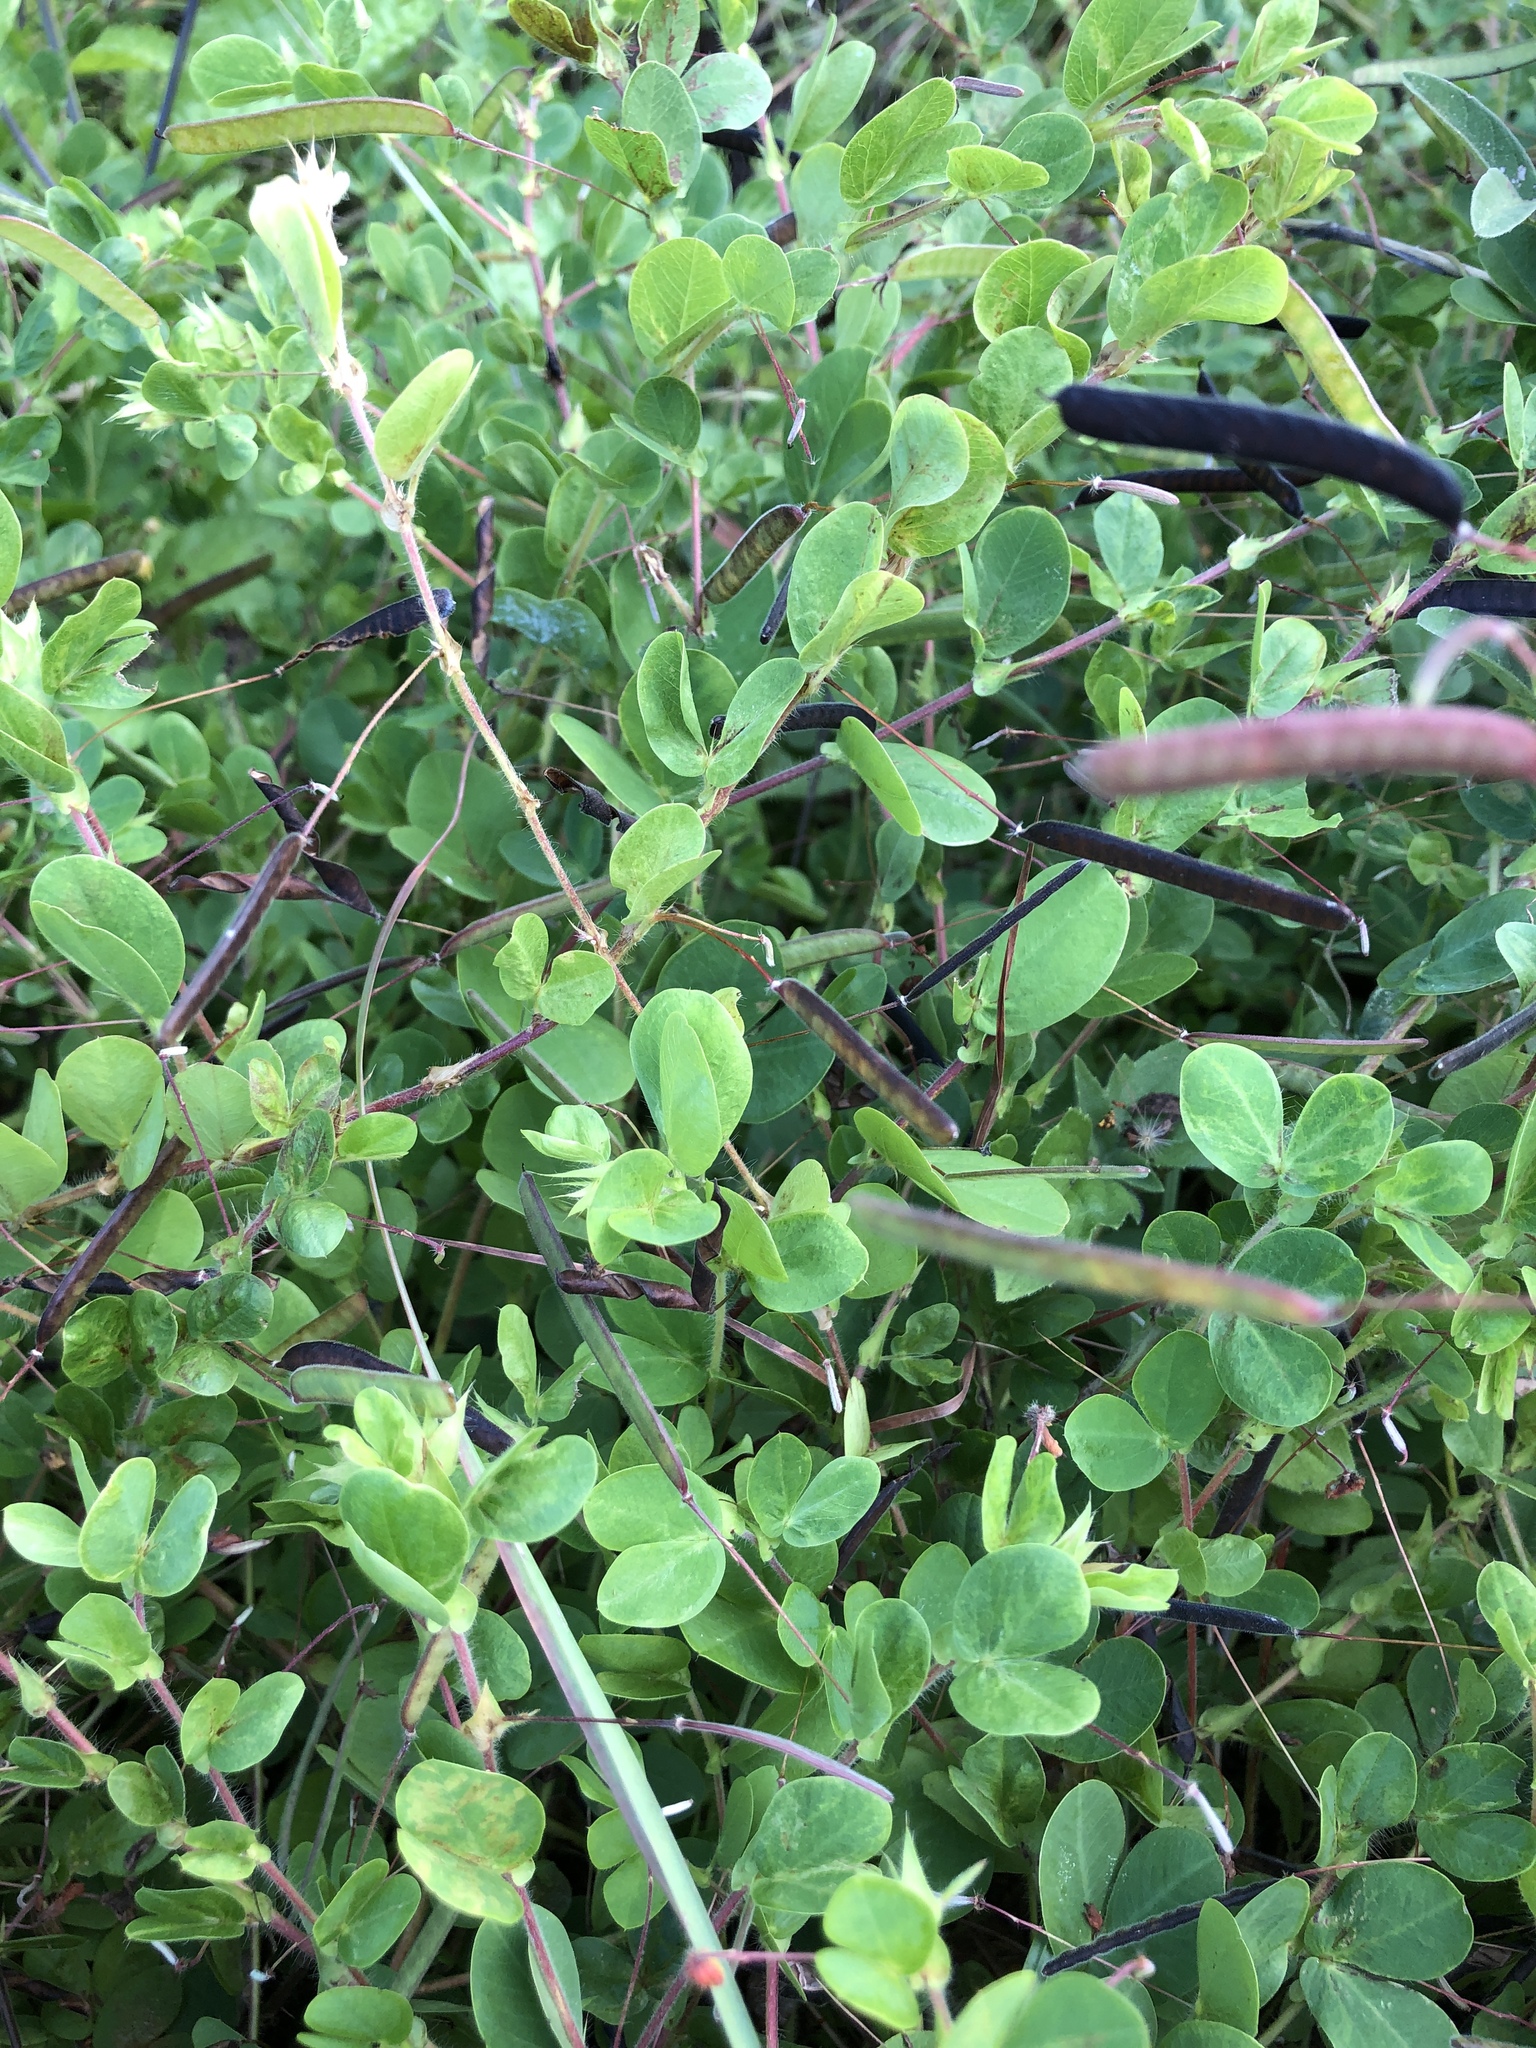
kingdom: Plantae
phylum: Tracheophyta
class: Magnoliopsida
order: Fabales
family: Fabaceae
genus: Chamaecrista
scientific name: Chamaecrista rotundifolia
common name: Round-leaf cassia
